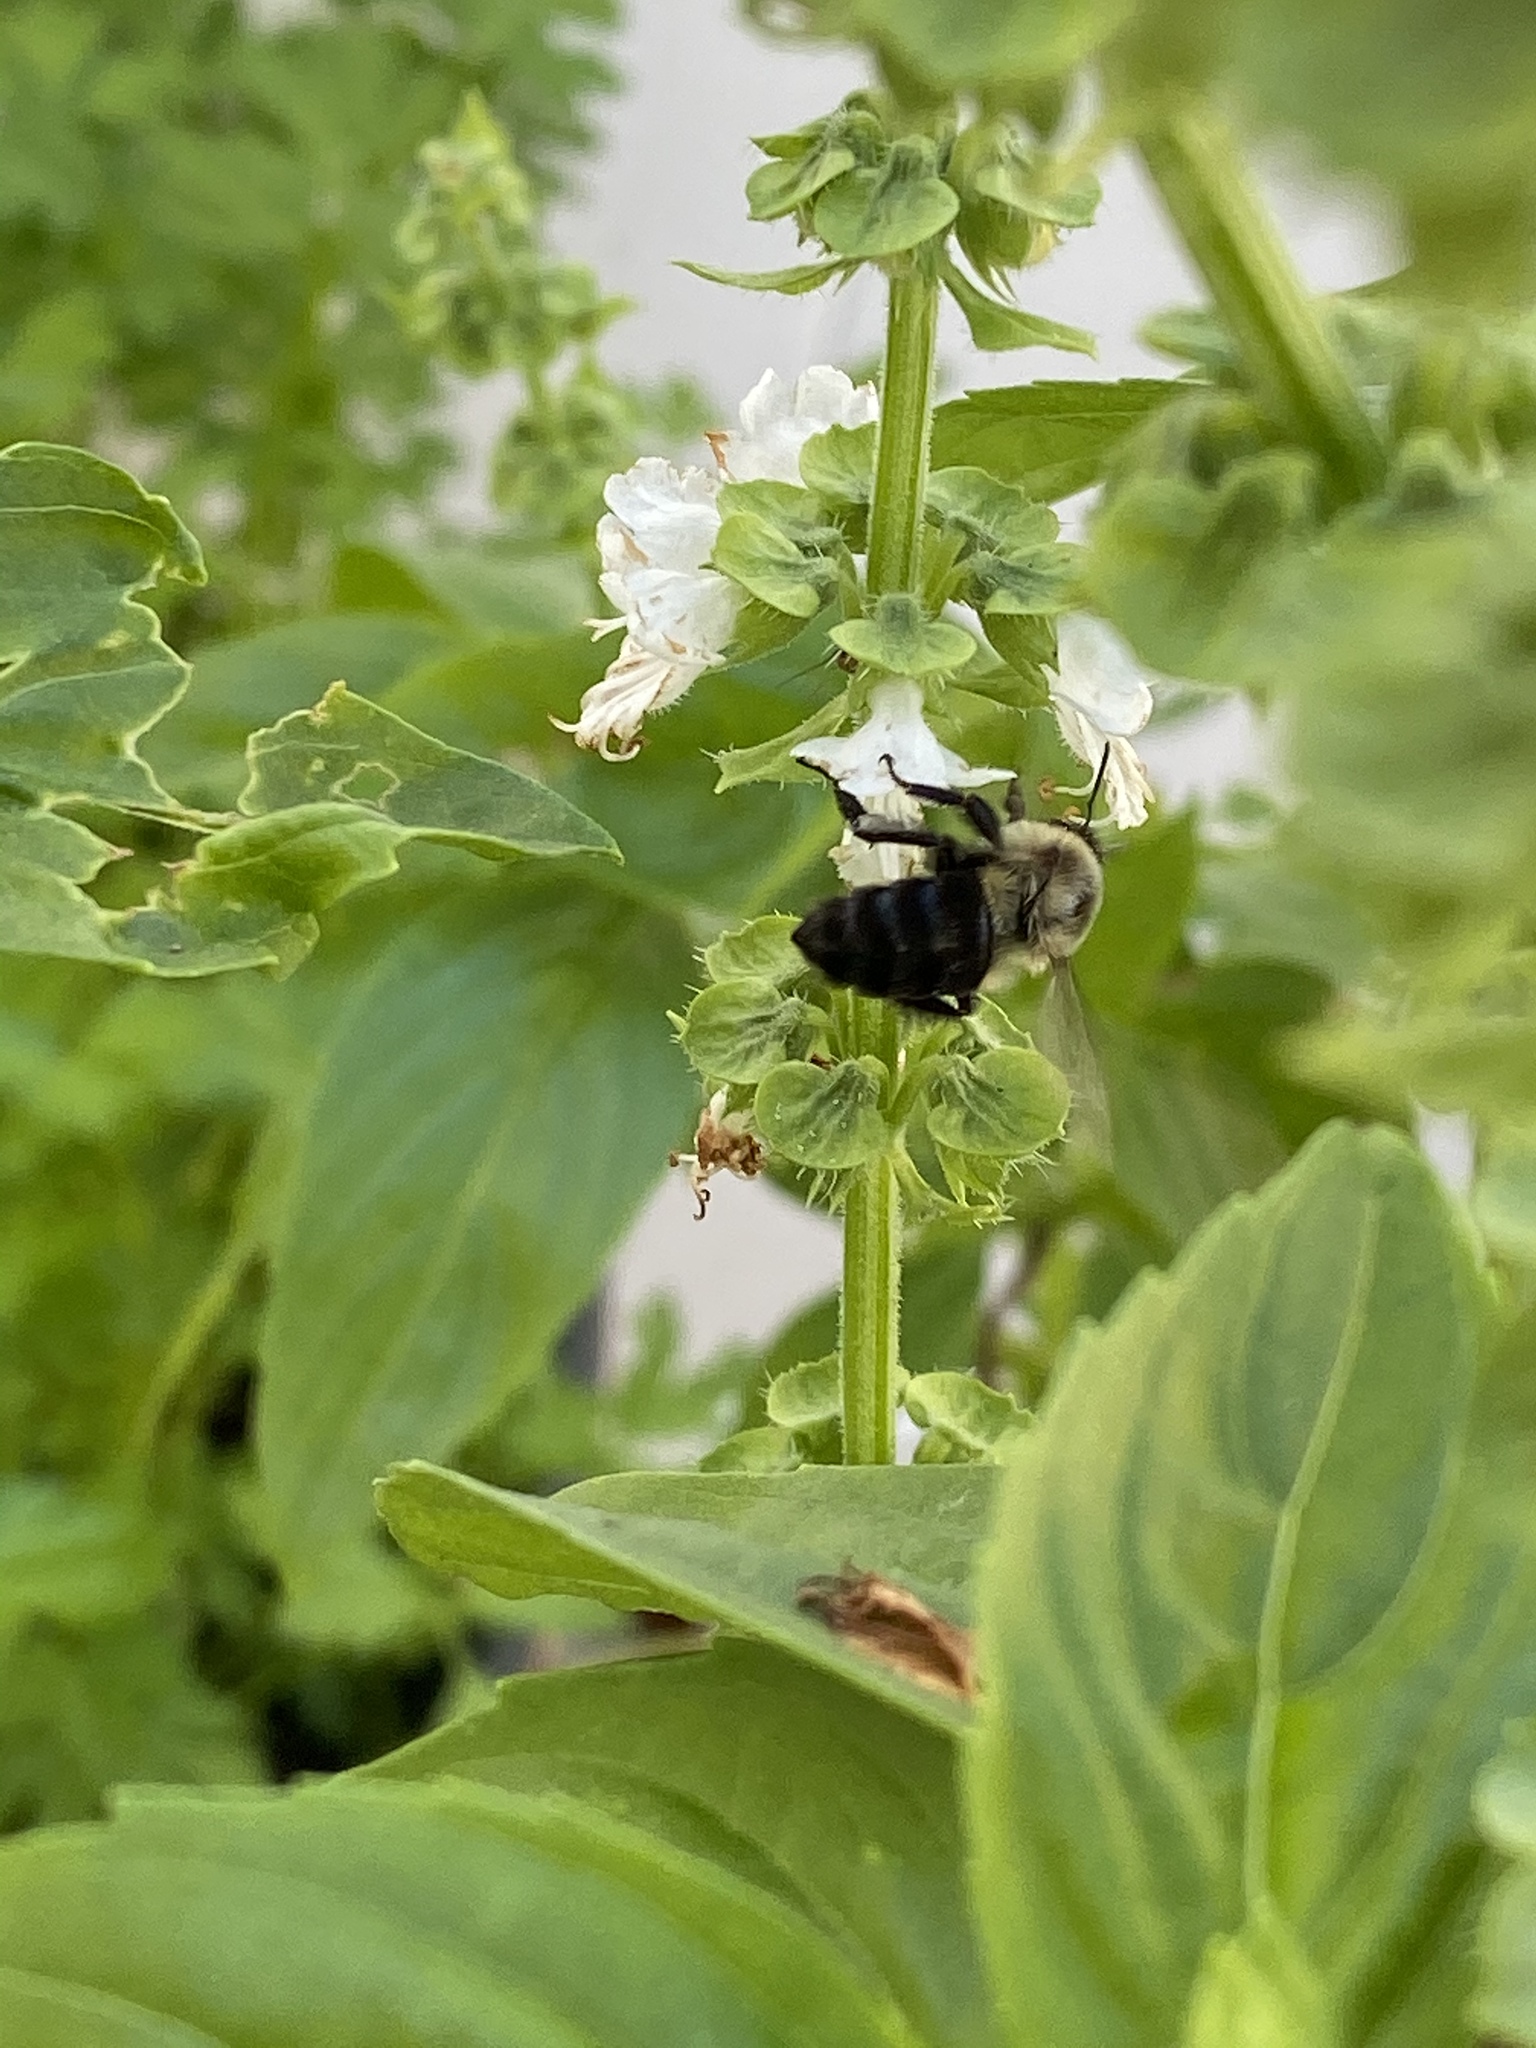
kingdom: Animalia
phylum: Arthropoda
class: Insecta
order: Hymenoptera
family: Apidae
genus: Bombus
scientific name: Bombus impatiens
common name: Common eastern bumble bee
